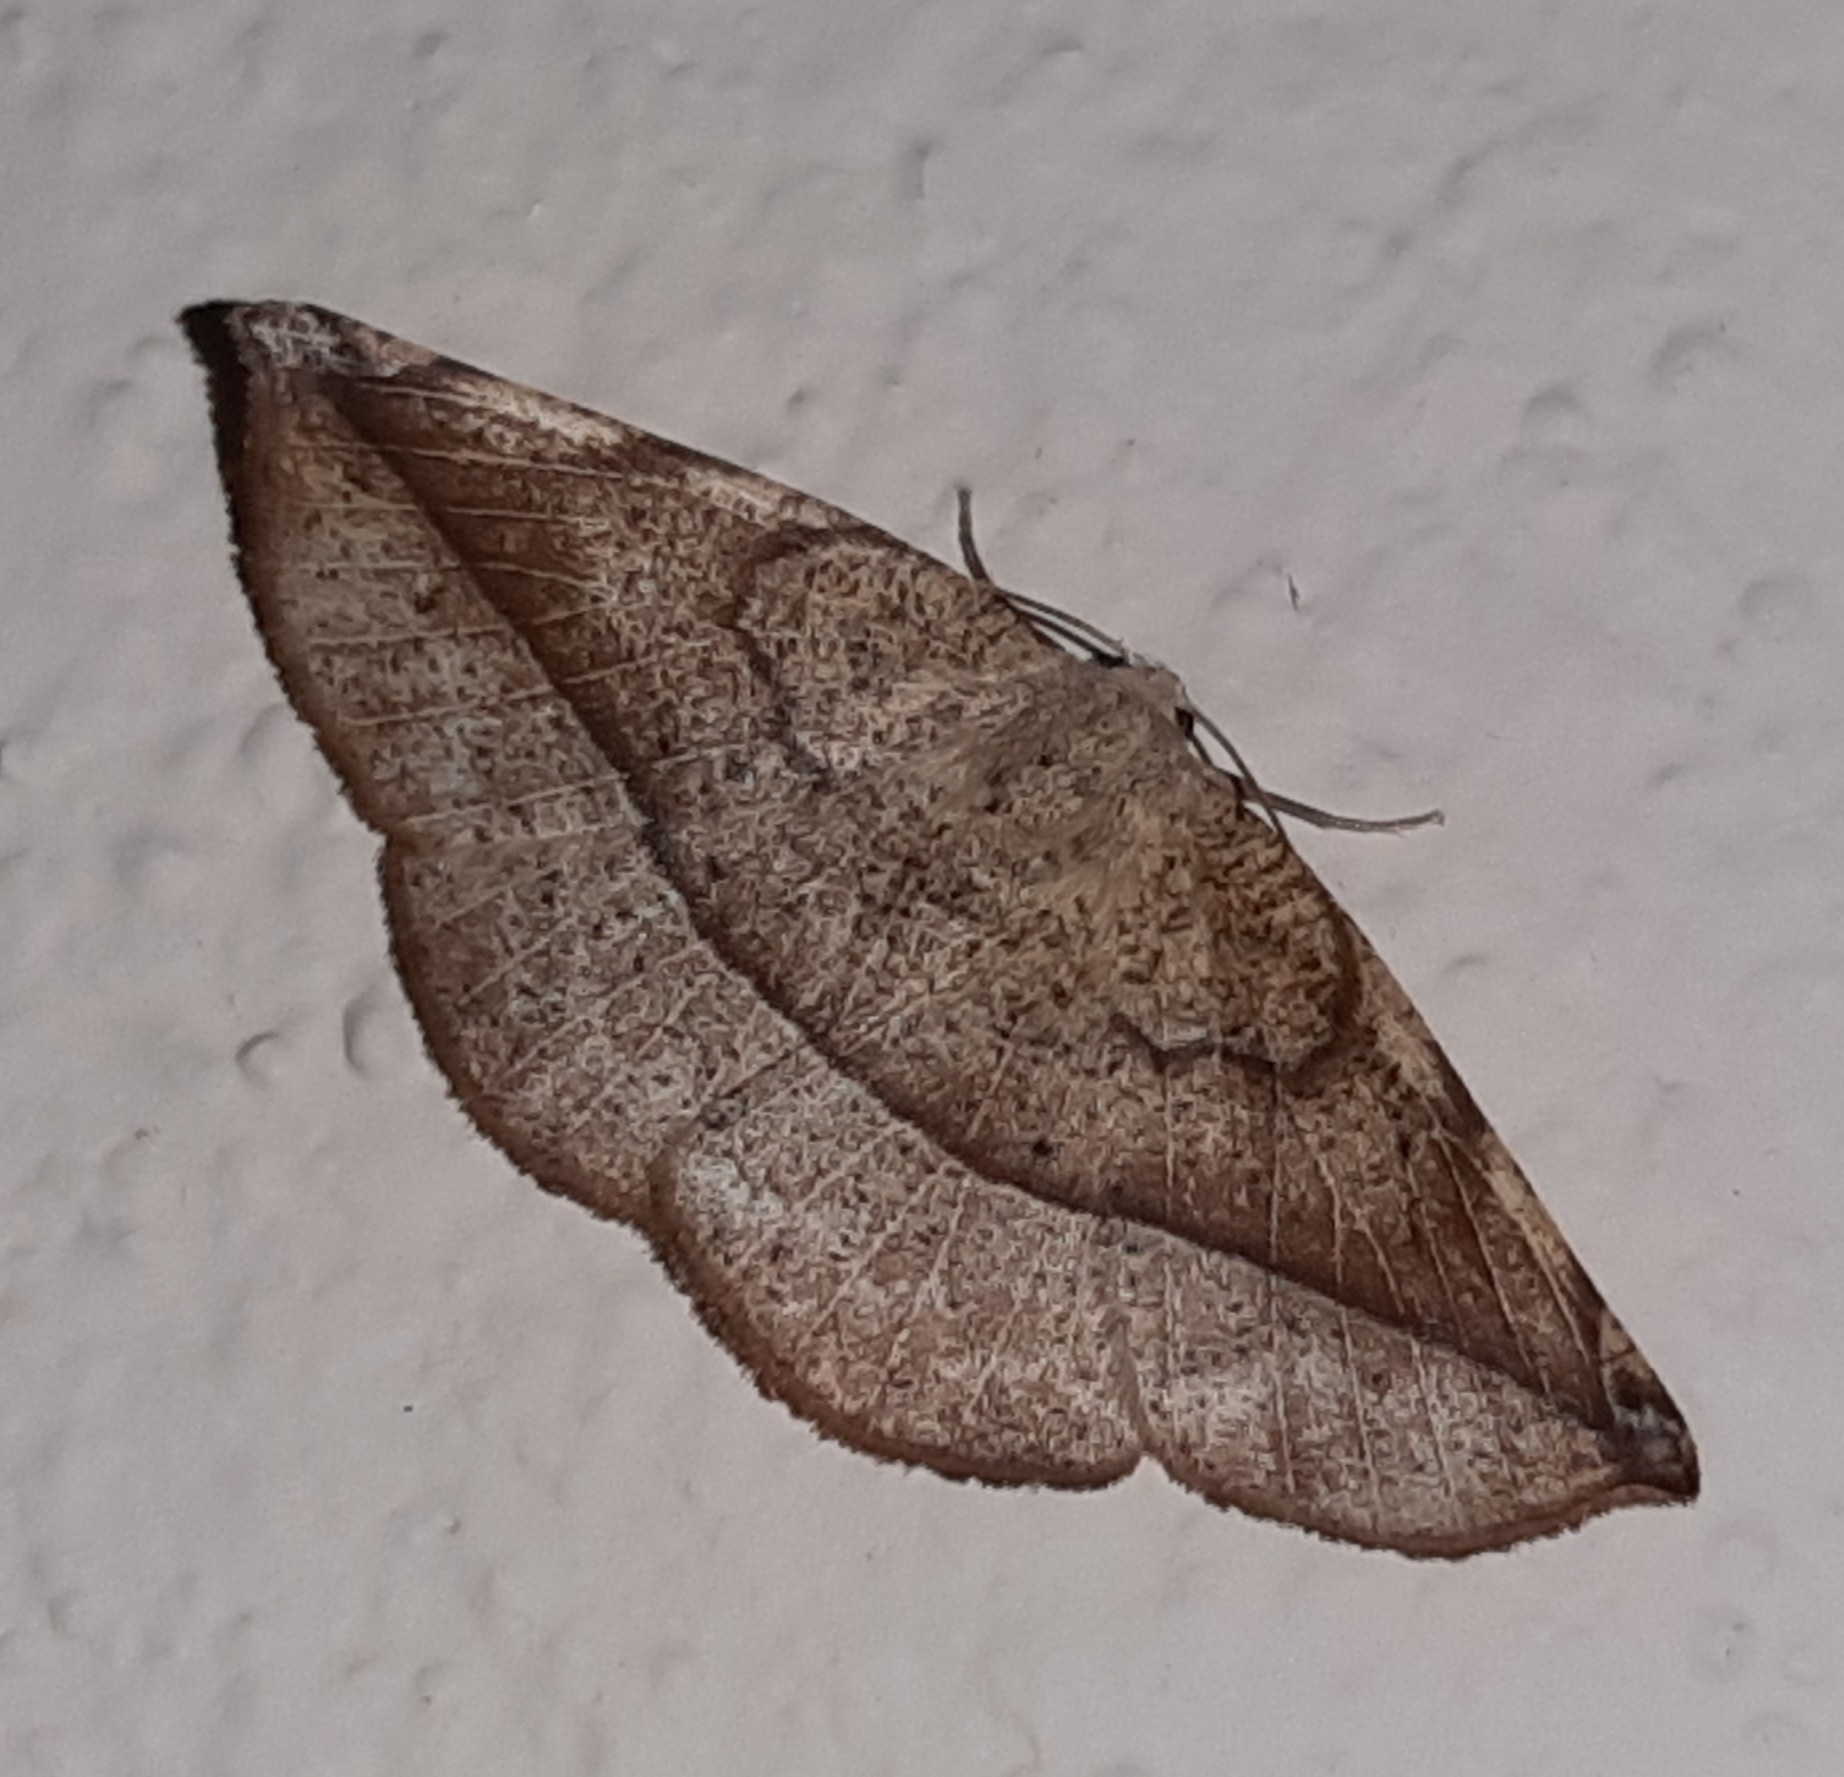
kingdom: Animalia
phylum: Arthropoda
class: Insecta
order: Lepidoptera
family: Geometridae
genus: Eusarca
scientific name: Eusarca cayennaria
